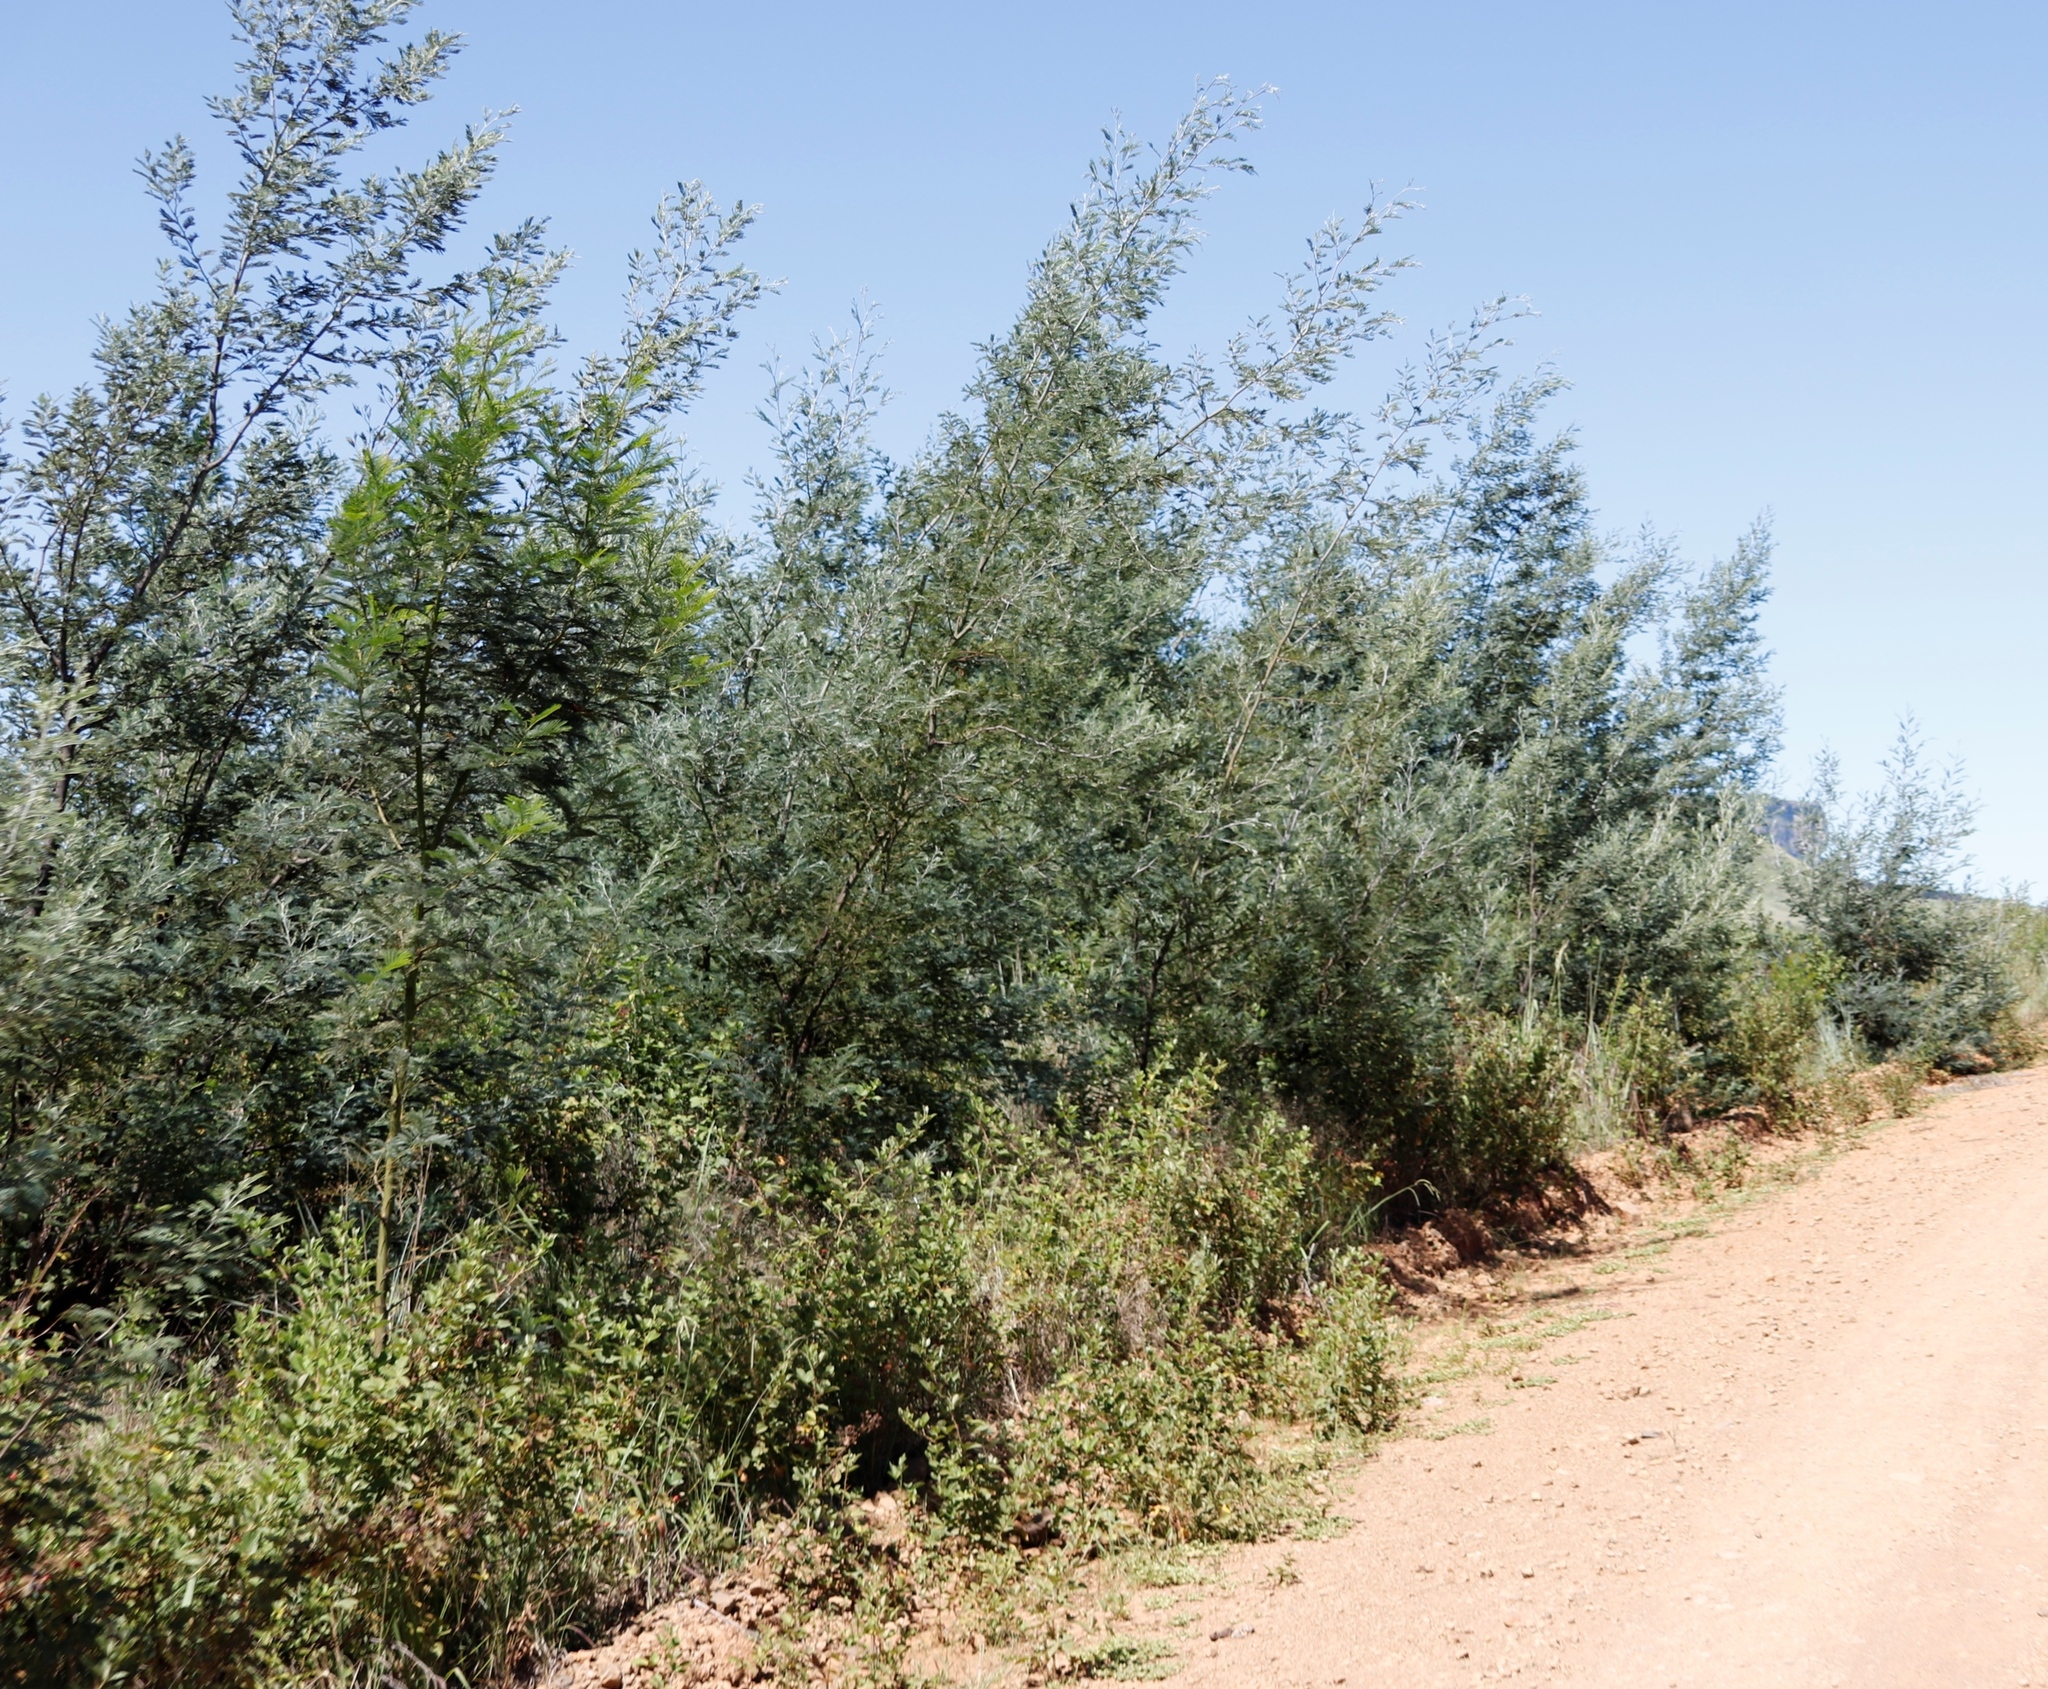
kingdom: Plantae
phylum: Tracheophyta
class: Magnoliopsida
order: Fabales
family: Fabaceae
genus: Acacia
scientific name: Acacia dealbata
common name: Silver wattle
